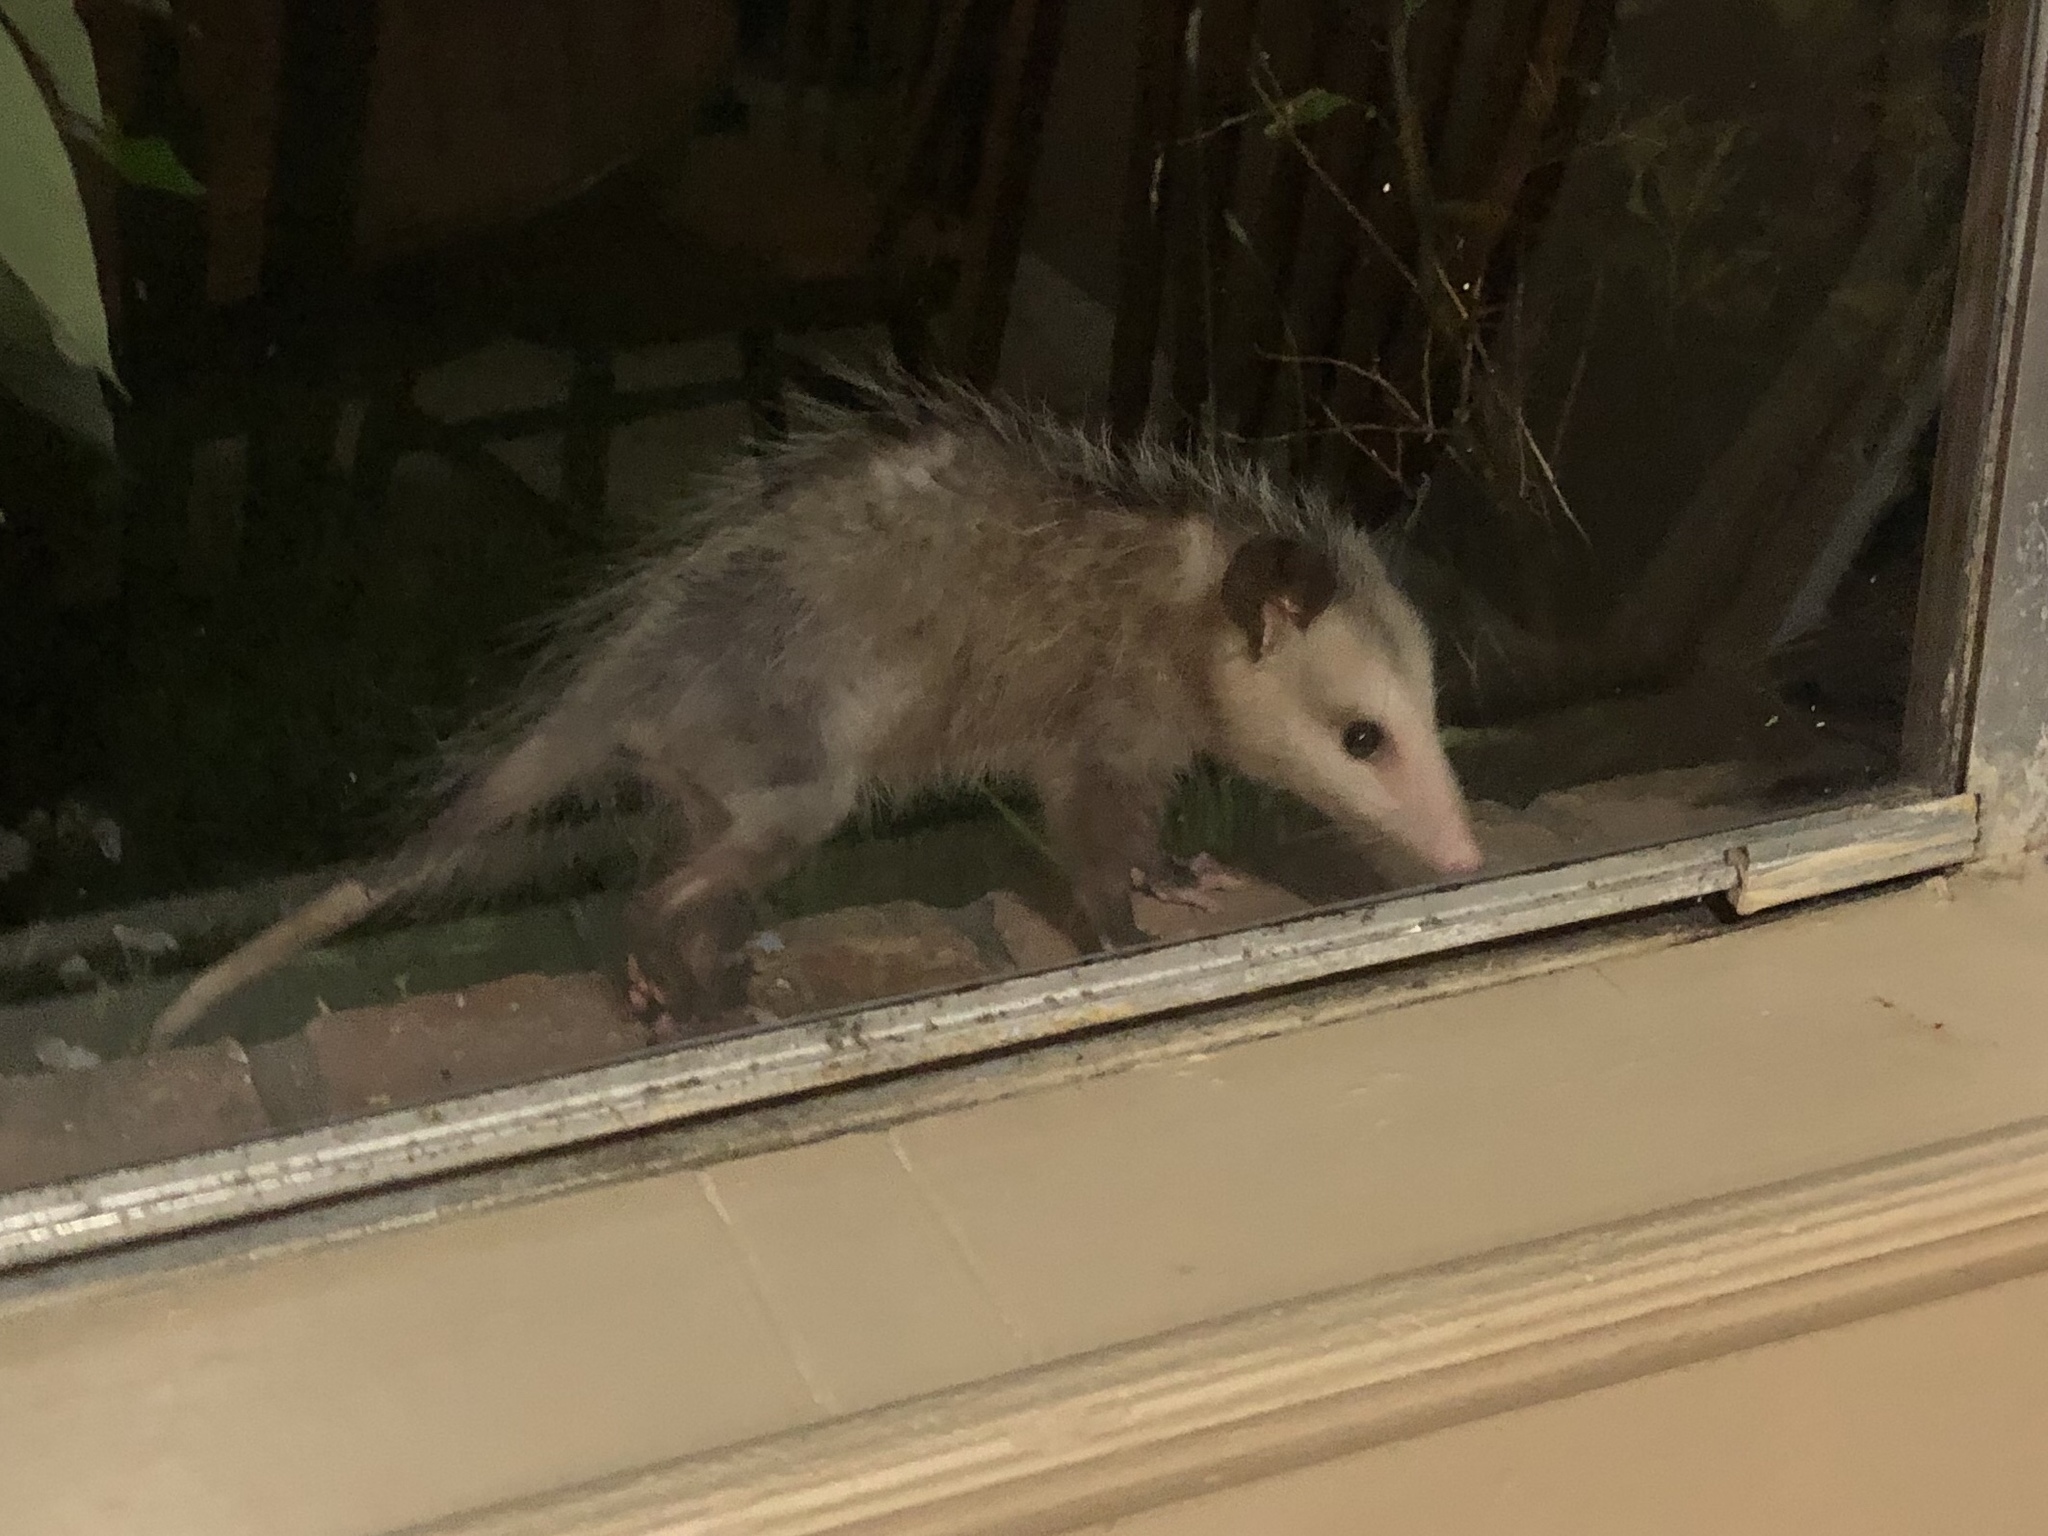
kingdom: Animalia
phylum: Chordata
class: Mammalia
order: Didelphimorphia
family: Didelphidae
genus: Didelphis
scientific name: Didelphis virginiana
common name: Virginia opossum
